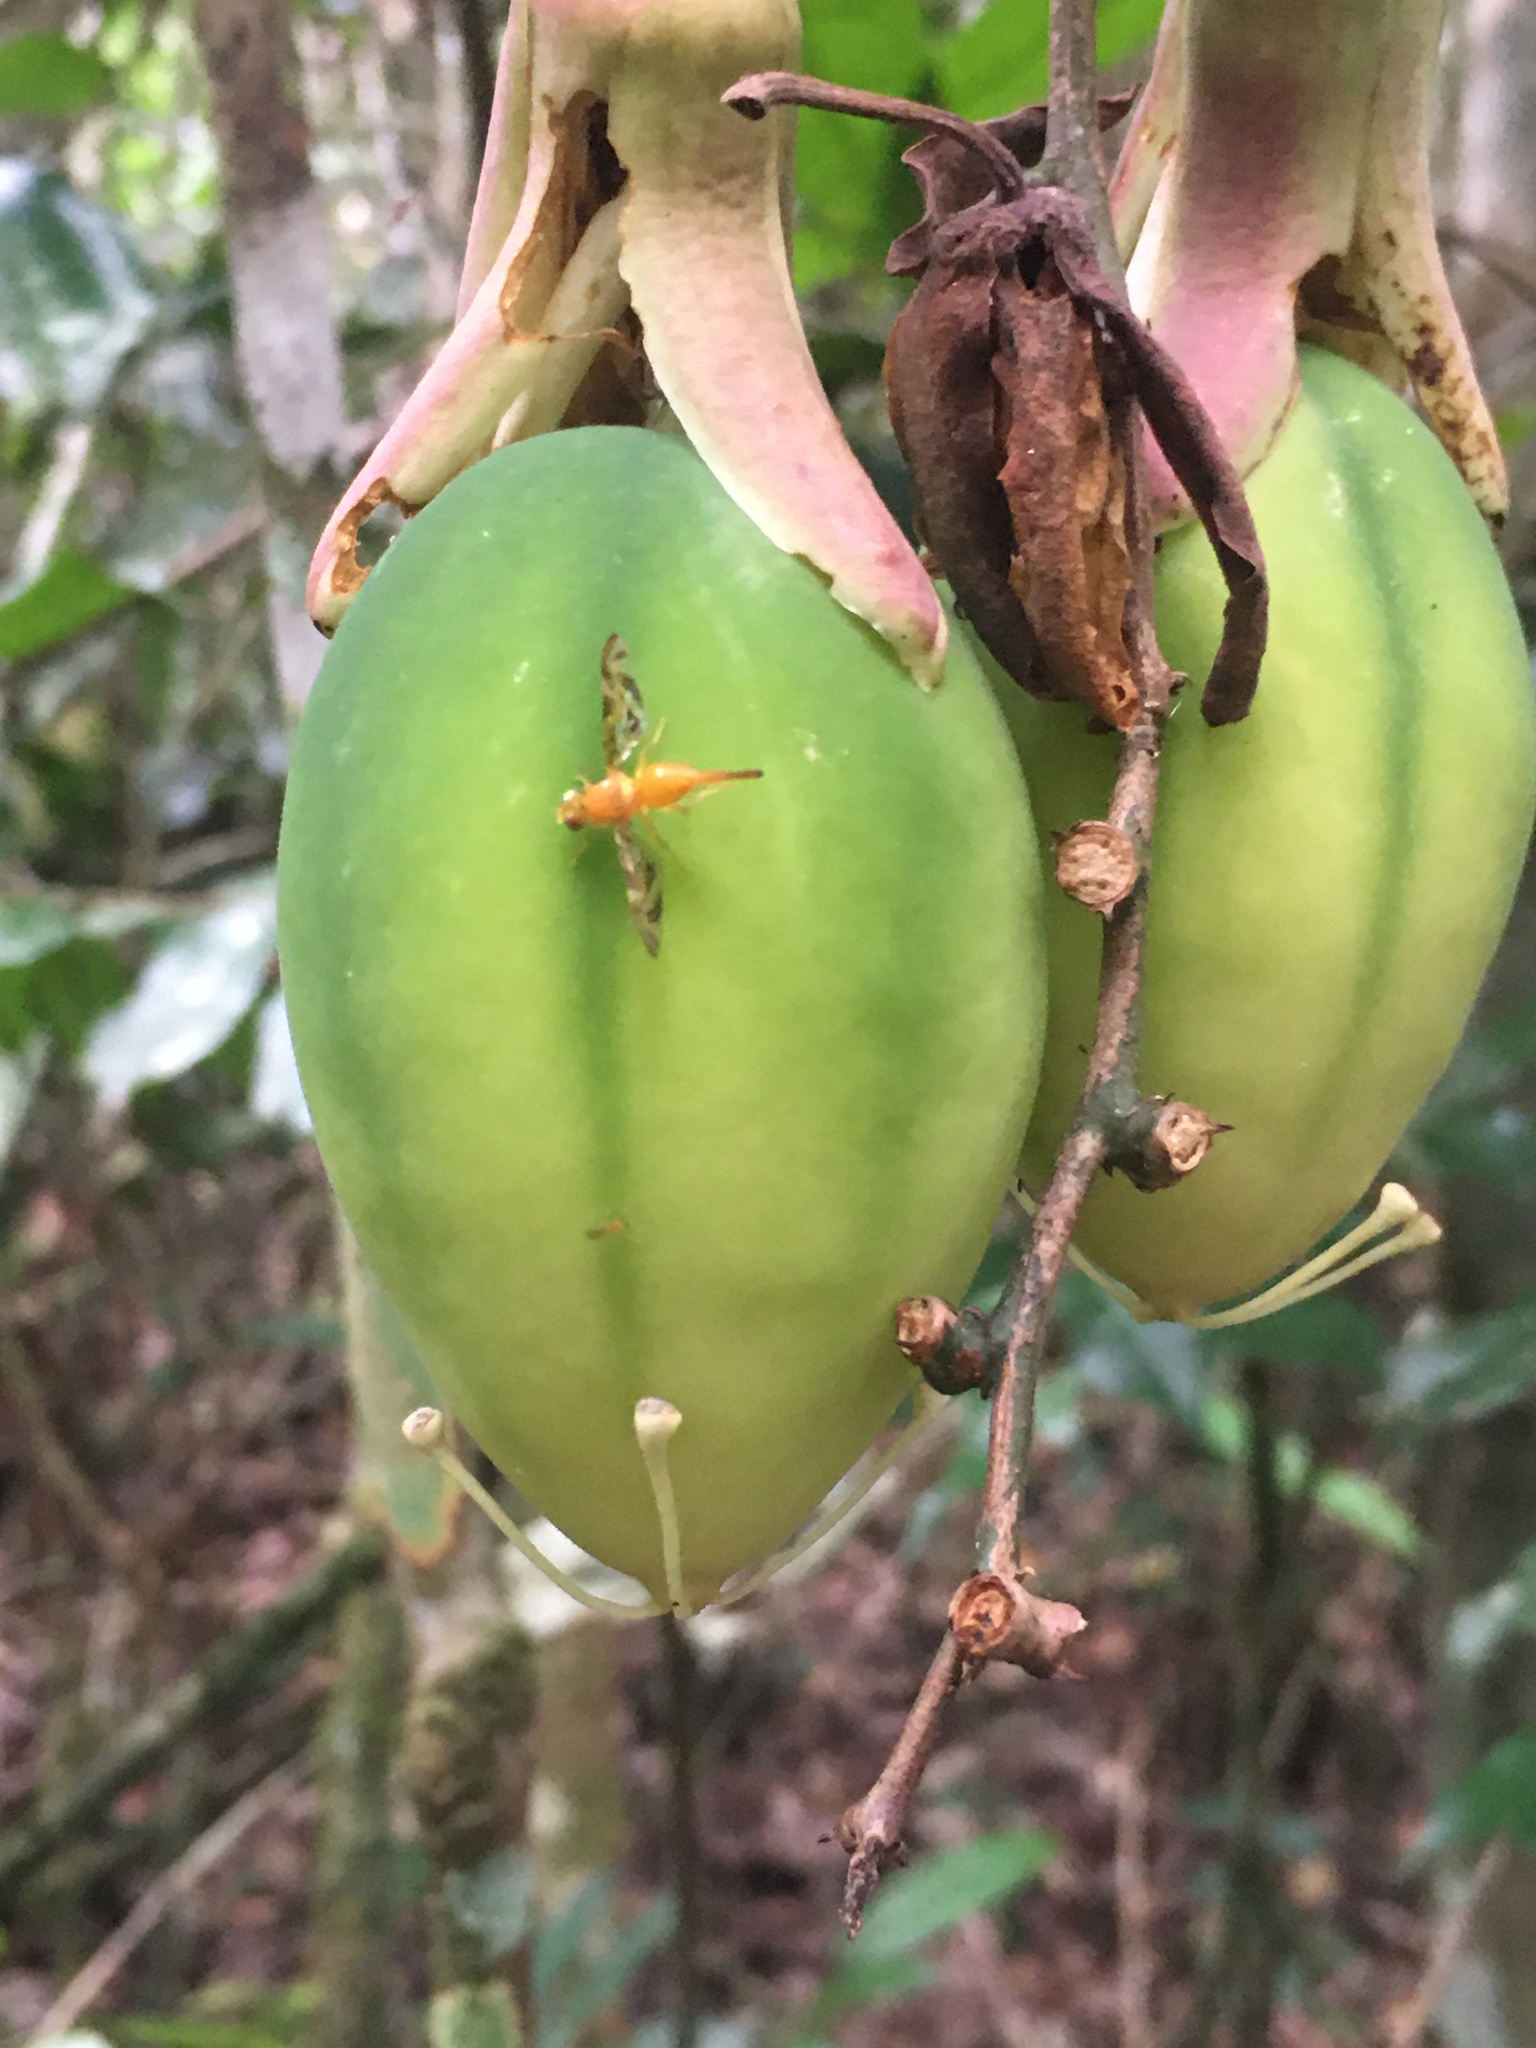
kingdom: Plantae
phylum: Tracheophyta
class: Magnoliopsida
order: Malpighiales
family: Passifloraceae
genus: Passiflora
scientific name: Passiflora contracta
